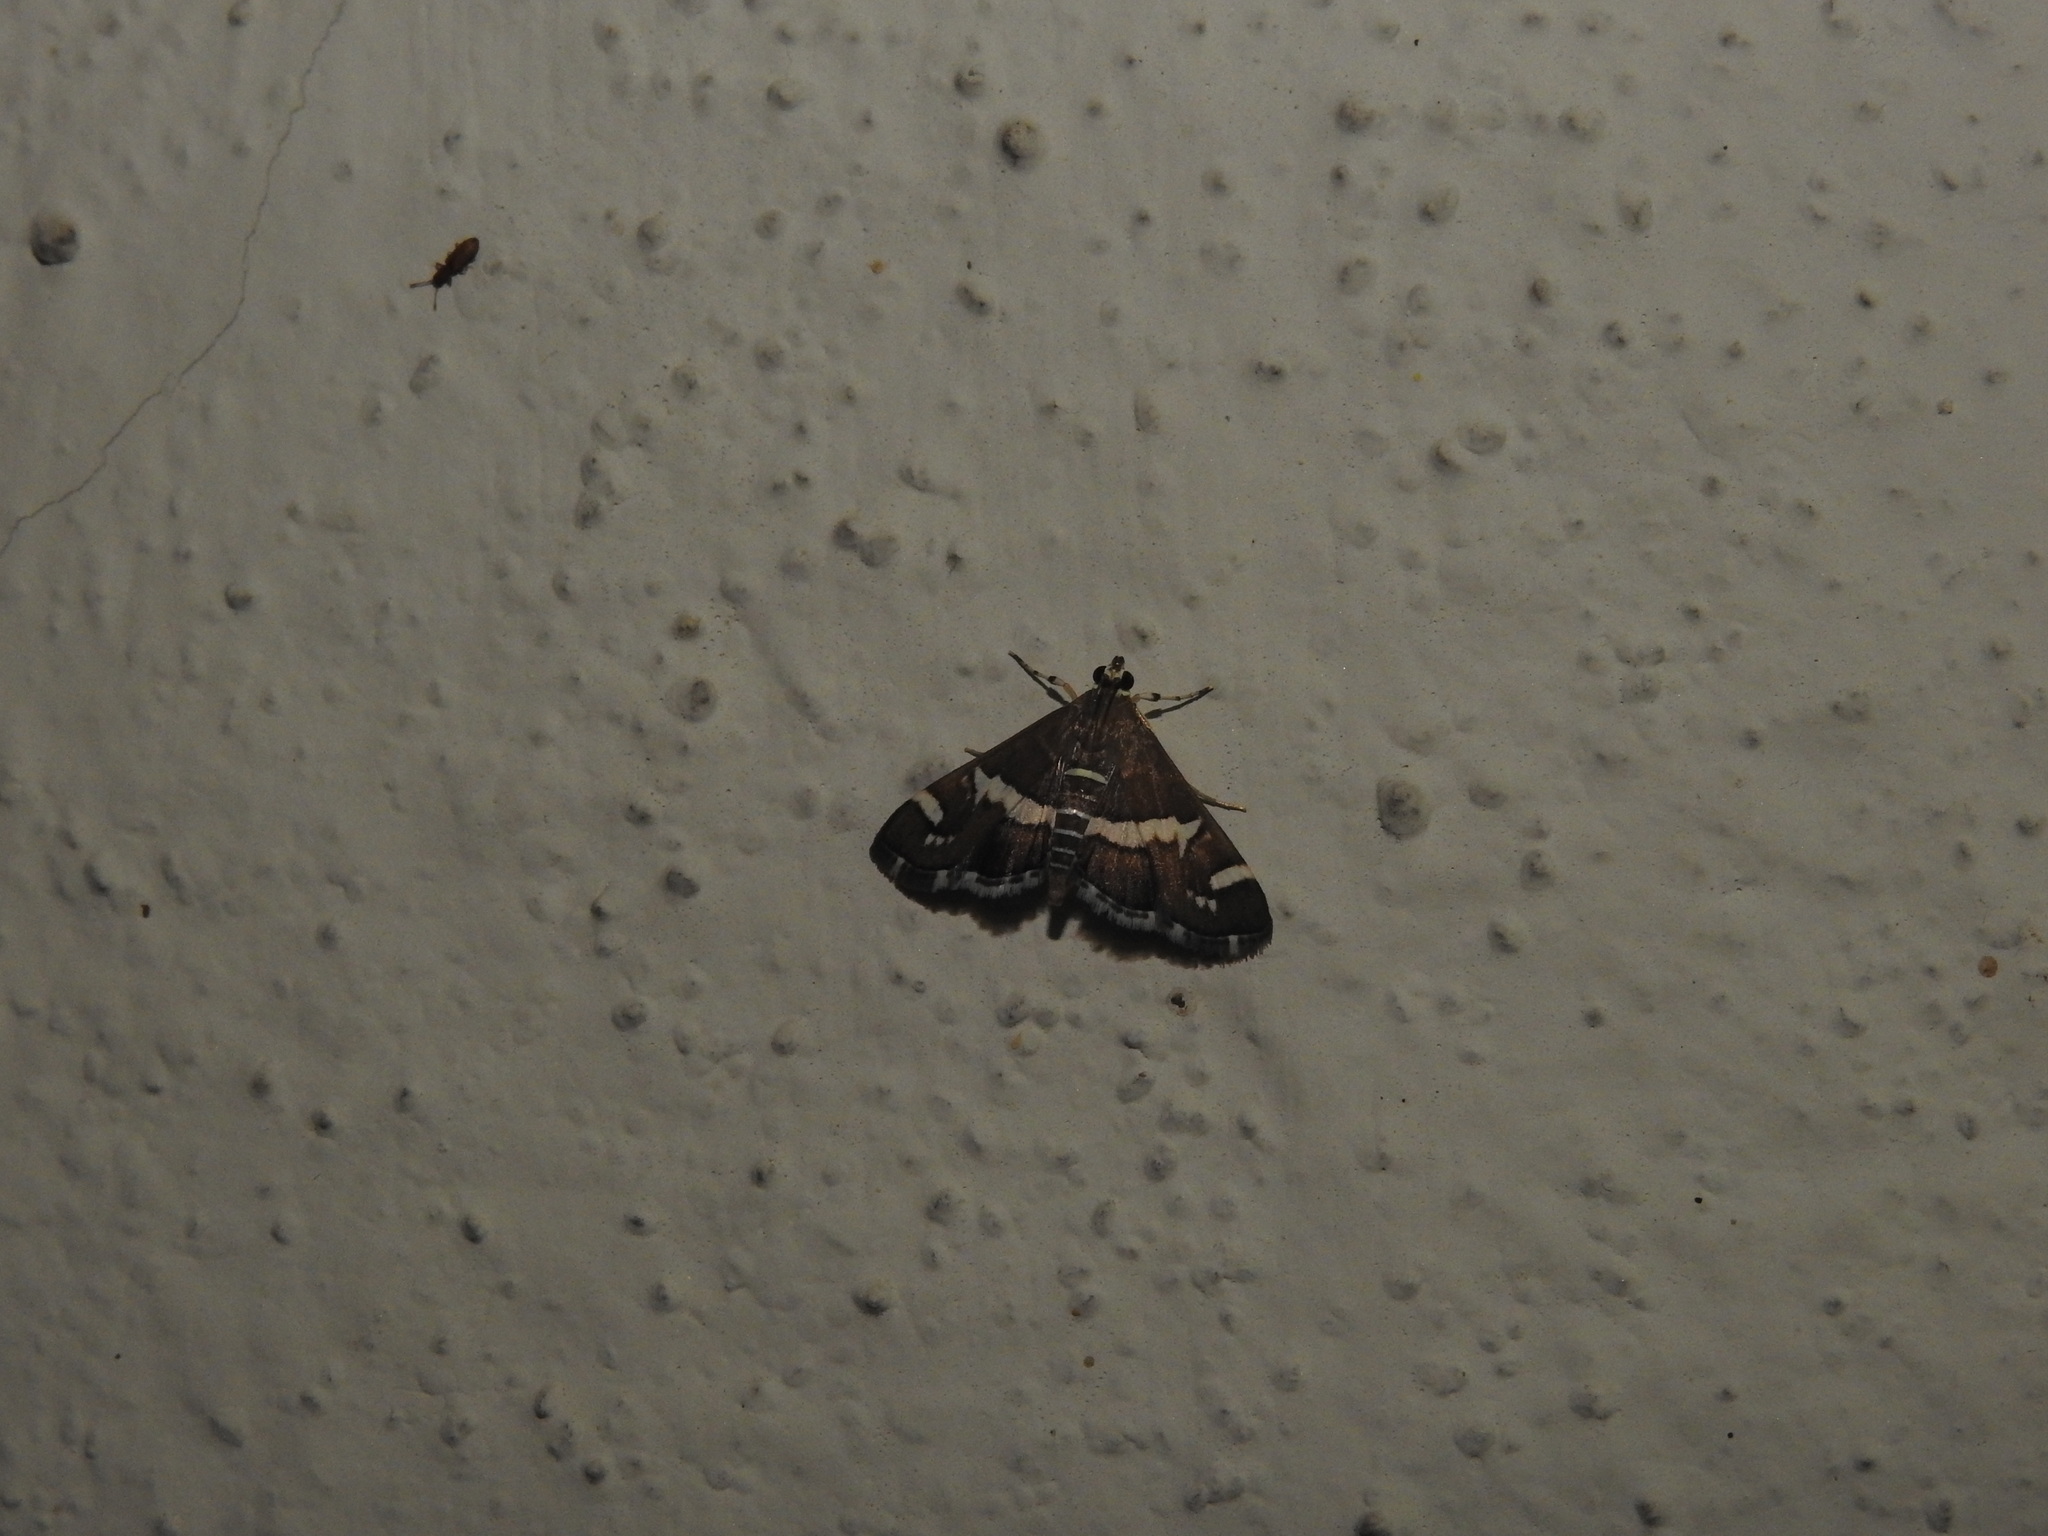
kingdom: Animalia
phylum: Arthropoda
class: Insecta
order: Lepidoptera
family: Crambidae
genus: Spoladea
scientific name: Spoladea recurvalis
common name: Beet webworm moth
